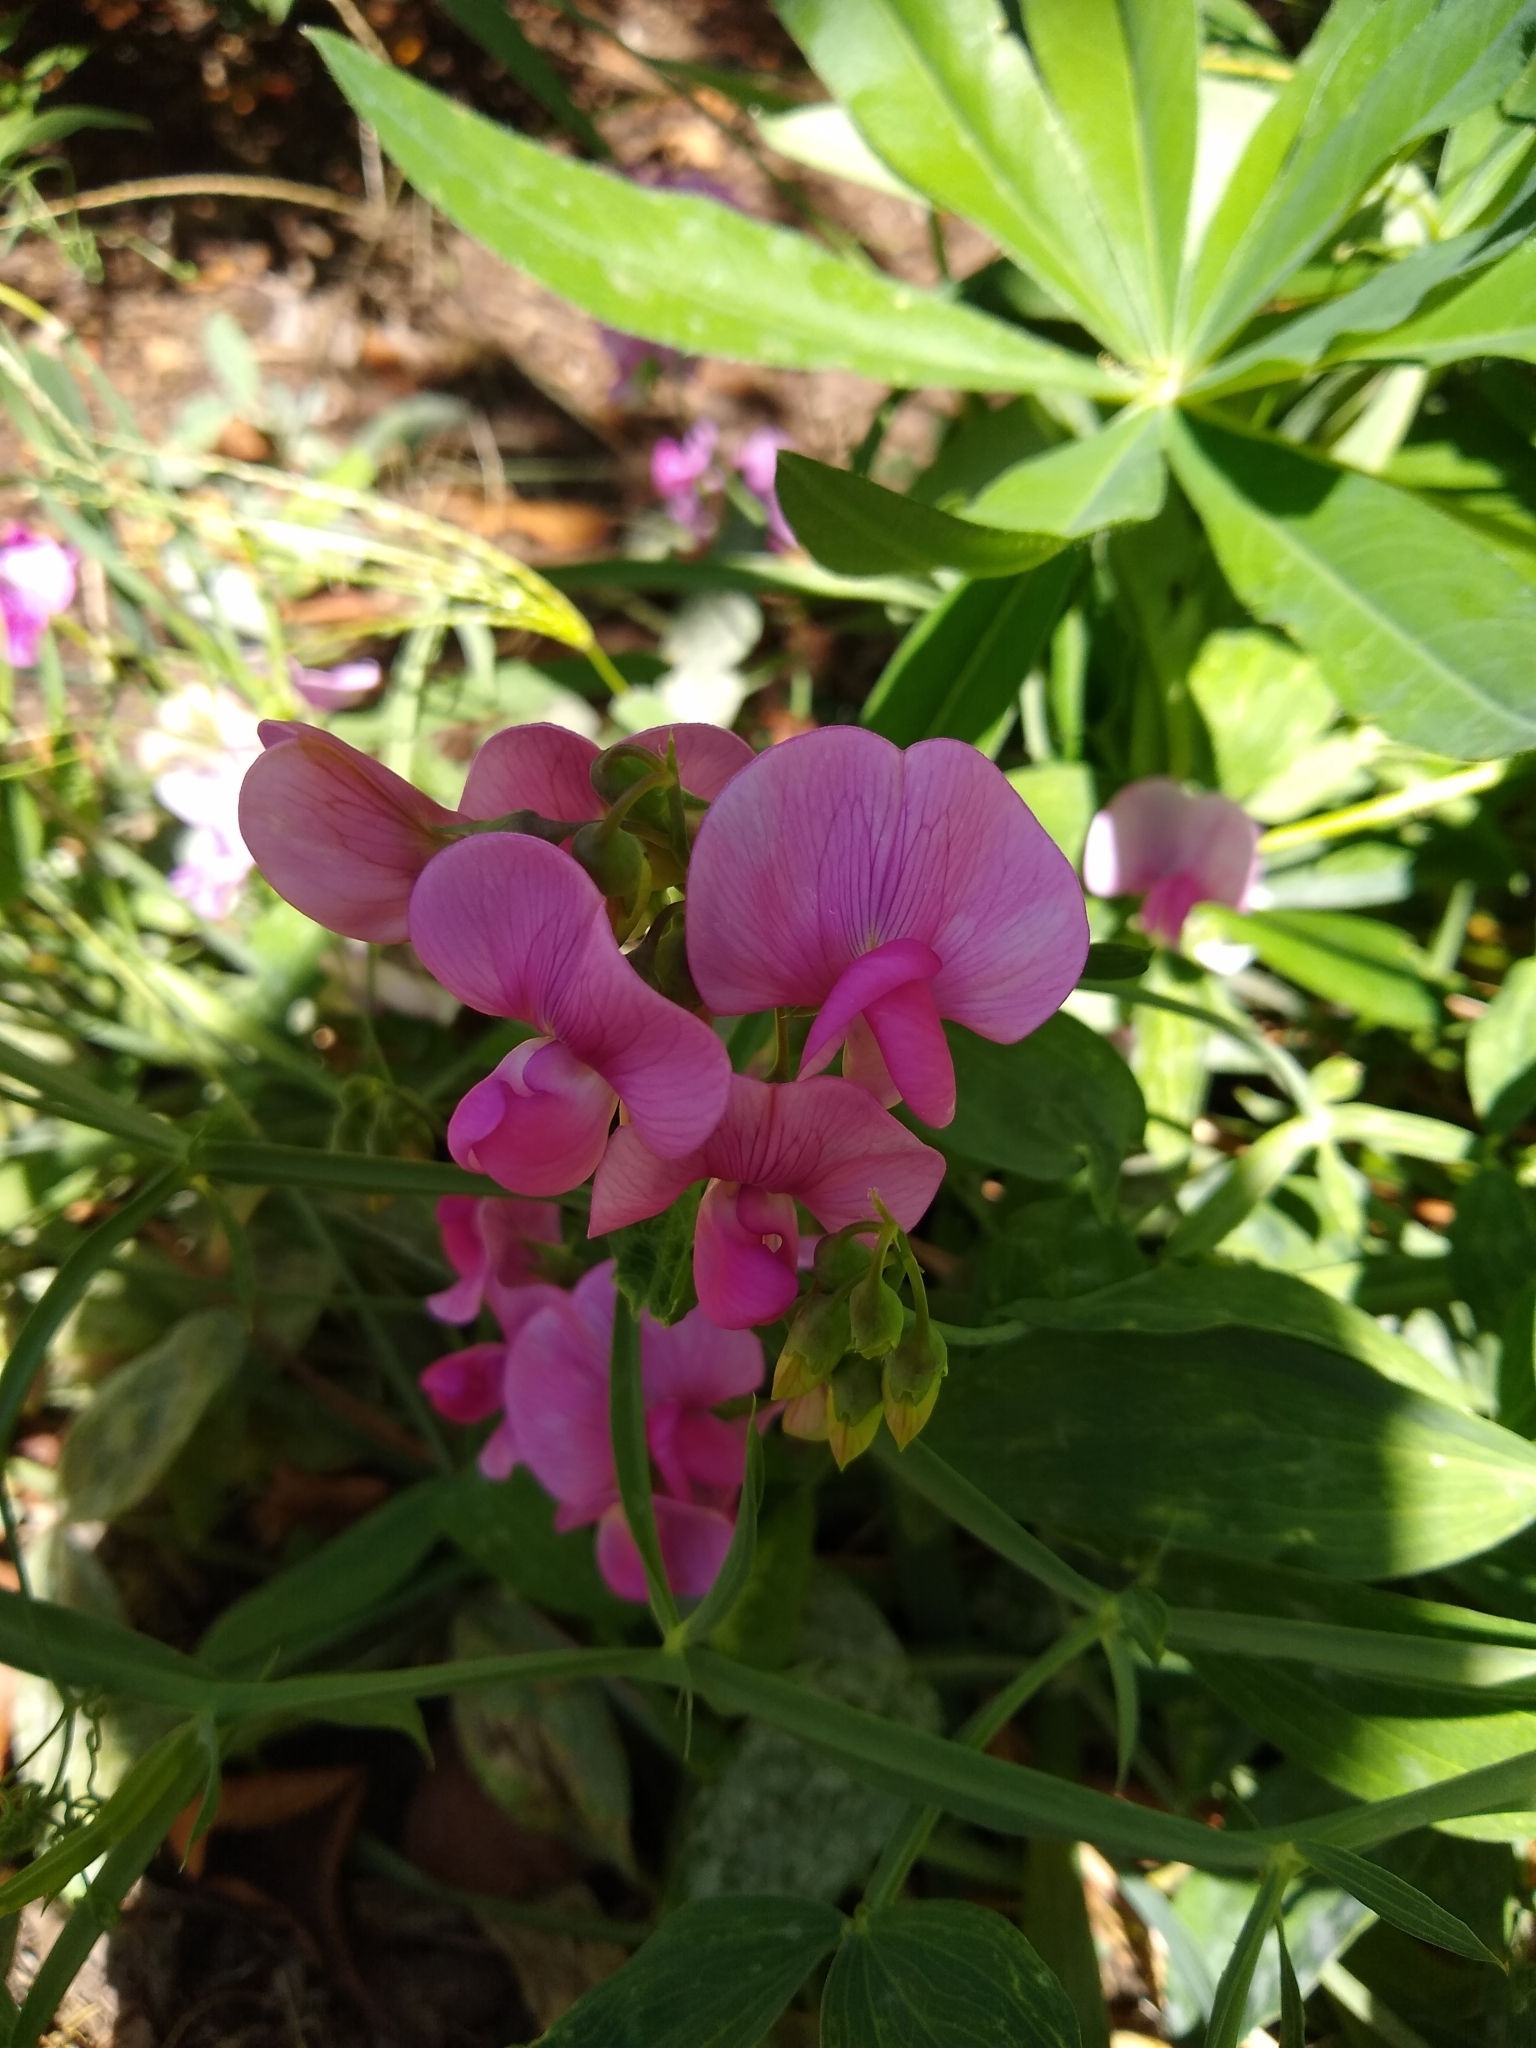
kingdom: Plantae
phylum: Tracheophyta
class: Magnoliopsida
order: Fabales
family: Fabaceae
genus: Lathyrus
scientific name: Lathyrus latifolius
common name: Perennial pea
